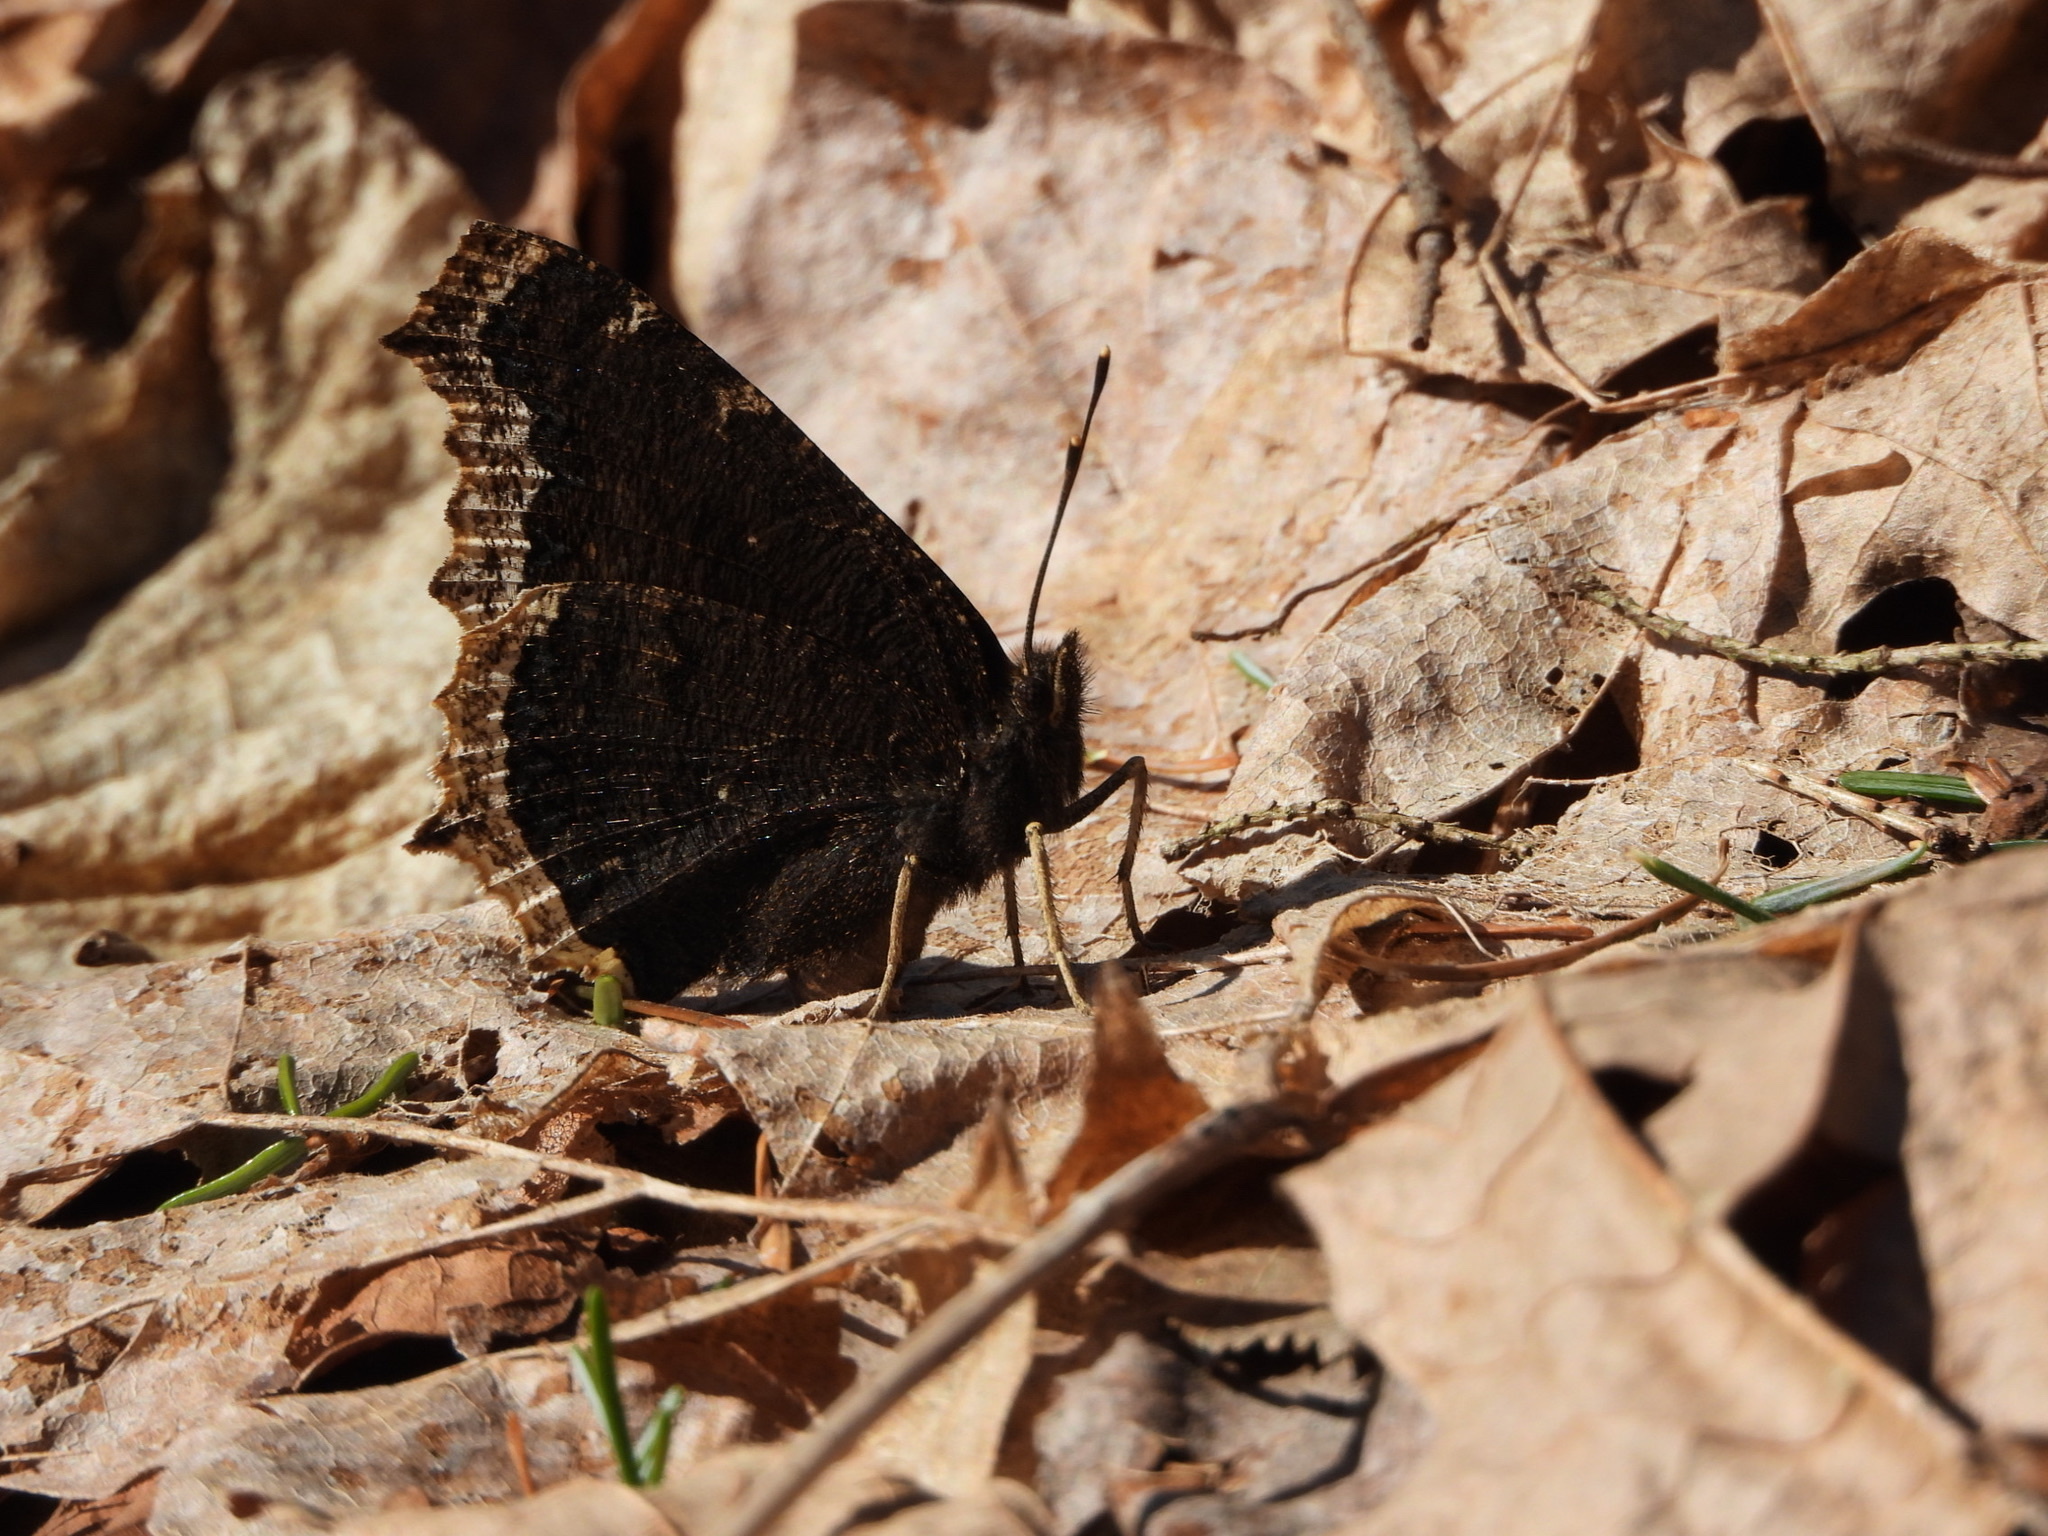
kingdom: Animalia
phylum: Arthropoda
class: Insecta
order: Lepidoptera
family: Nymphalidae
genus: Nymphalis
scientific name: Nymphalis antiopa
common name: Camberwell beauty
